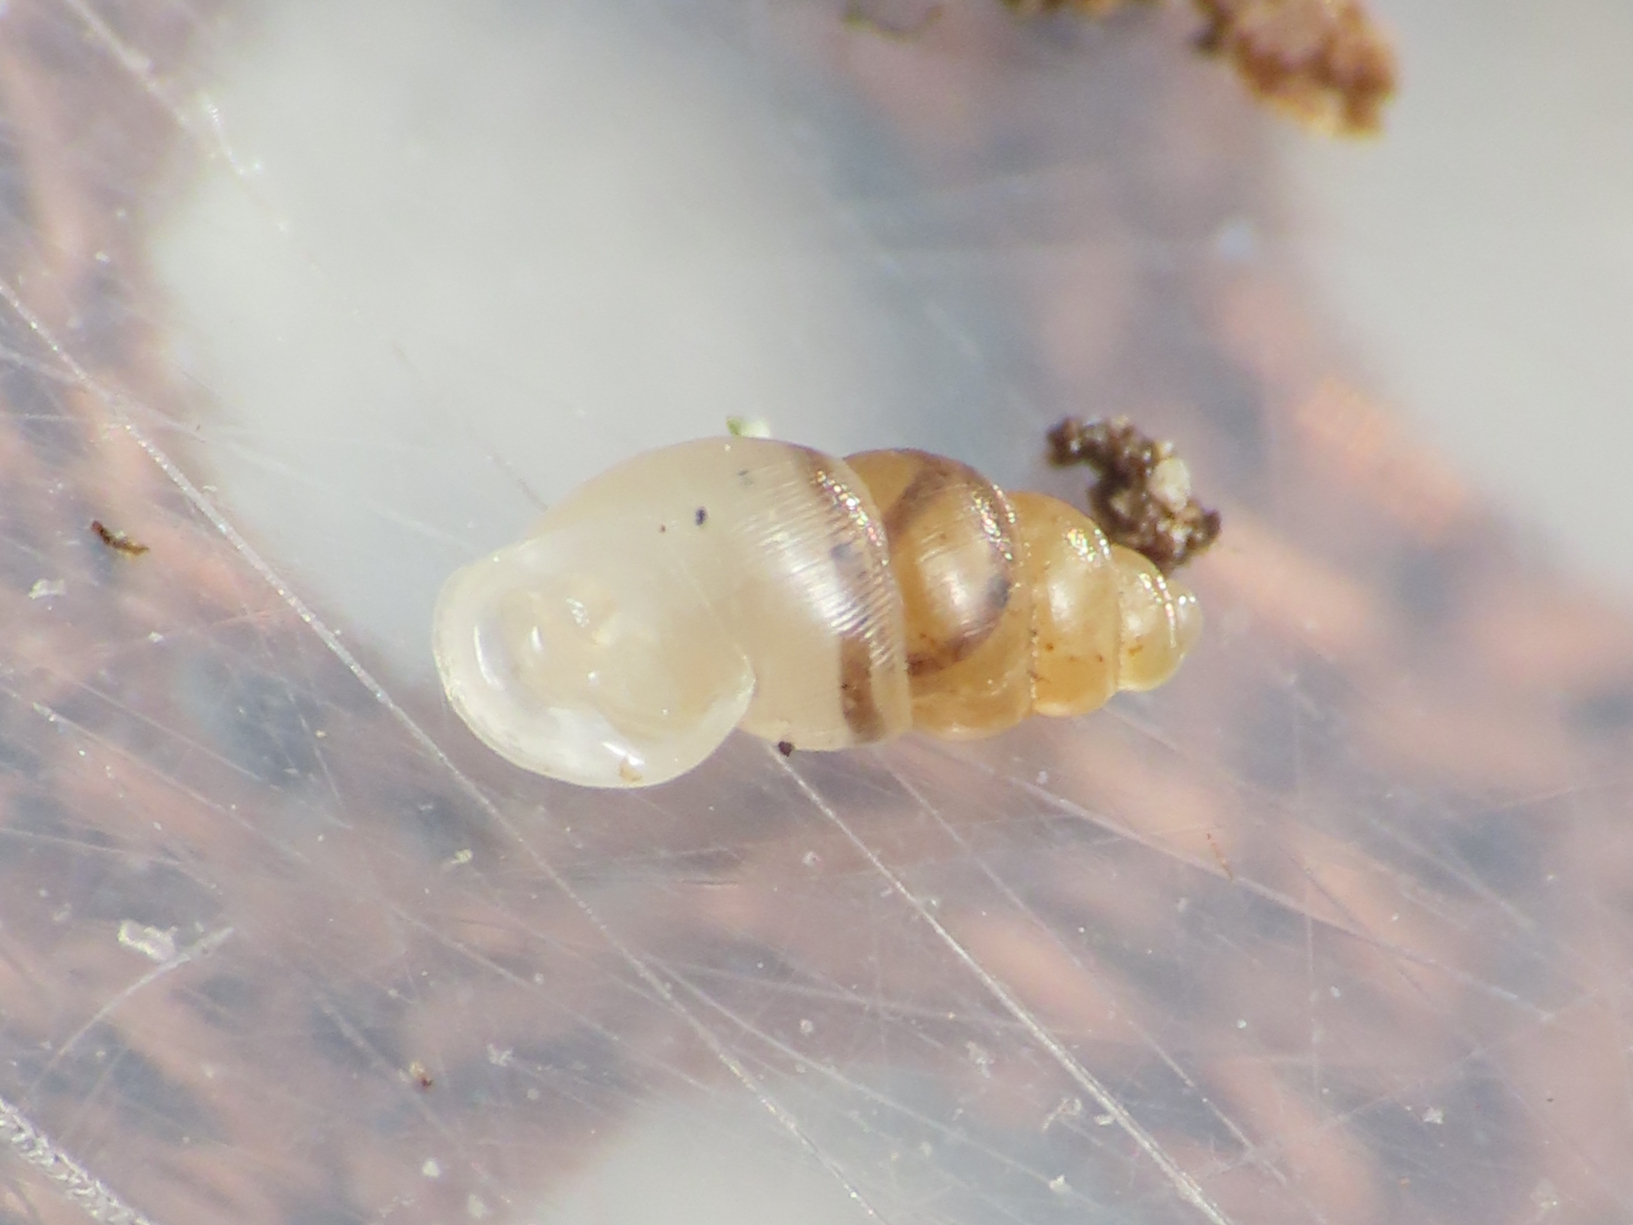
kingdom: Animalia
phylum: Mollusca
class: Gastropoda
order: Ellobiida
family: Ellobiidae
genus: Carychium
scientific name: Carychium tridentatum
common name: Long-toothed herald snail
